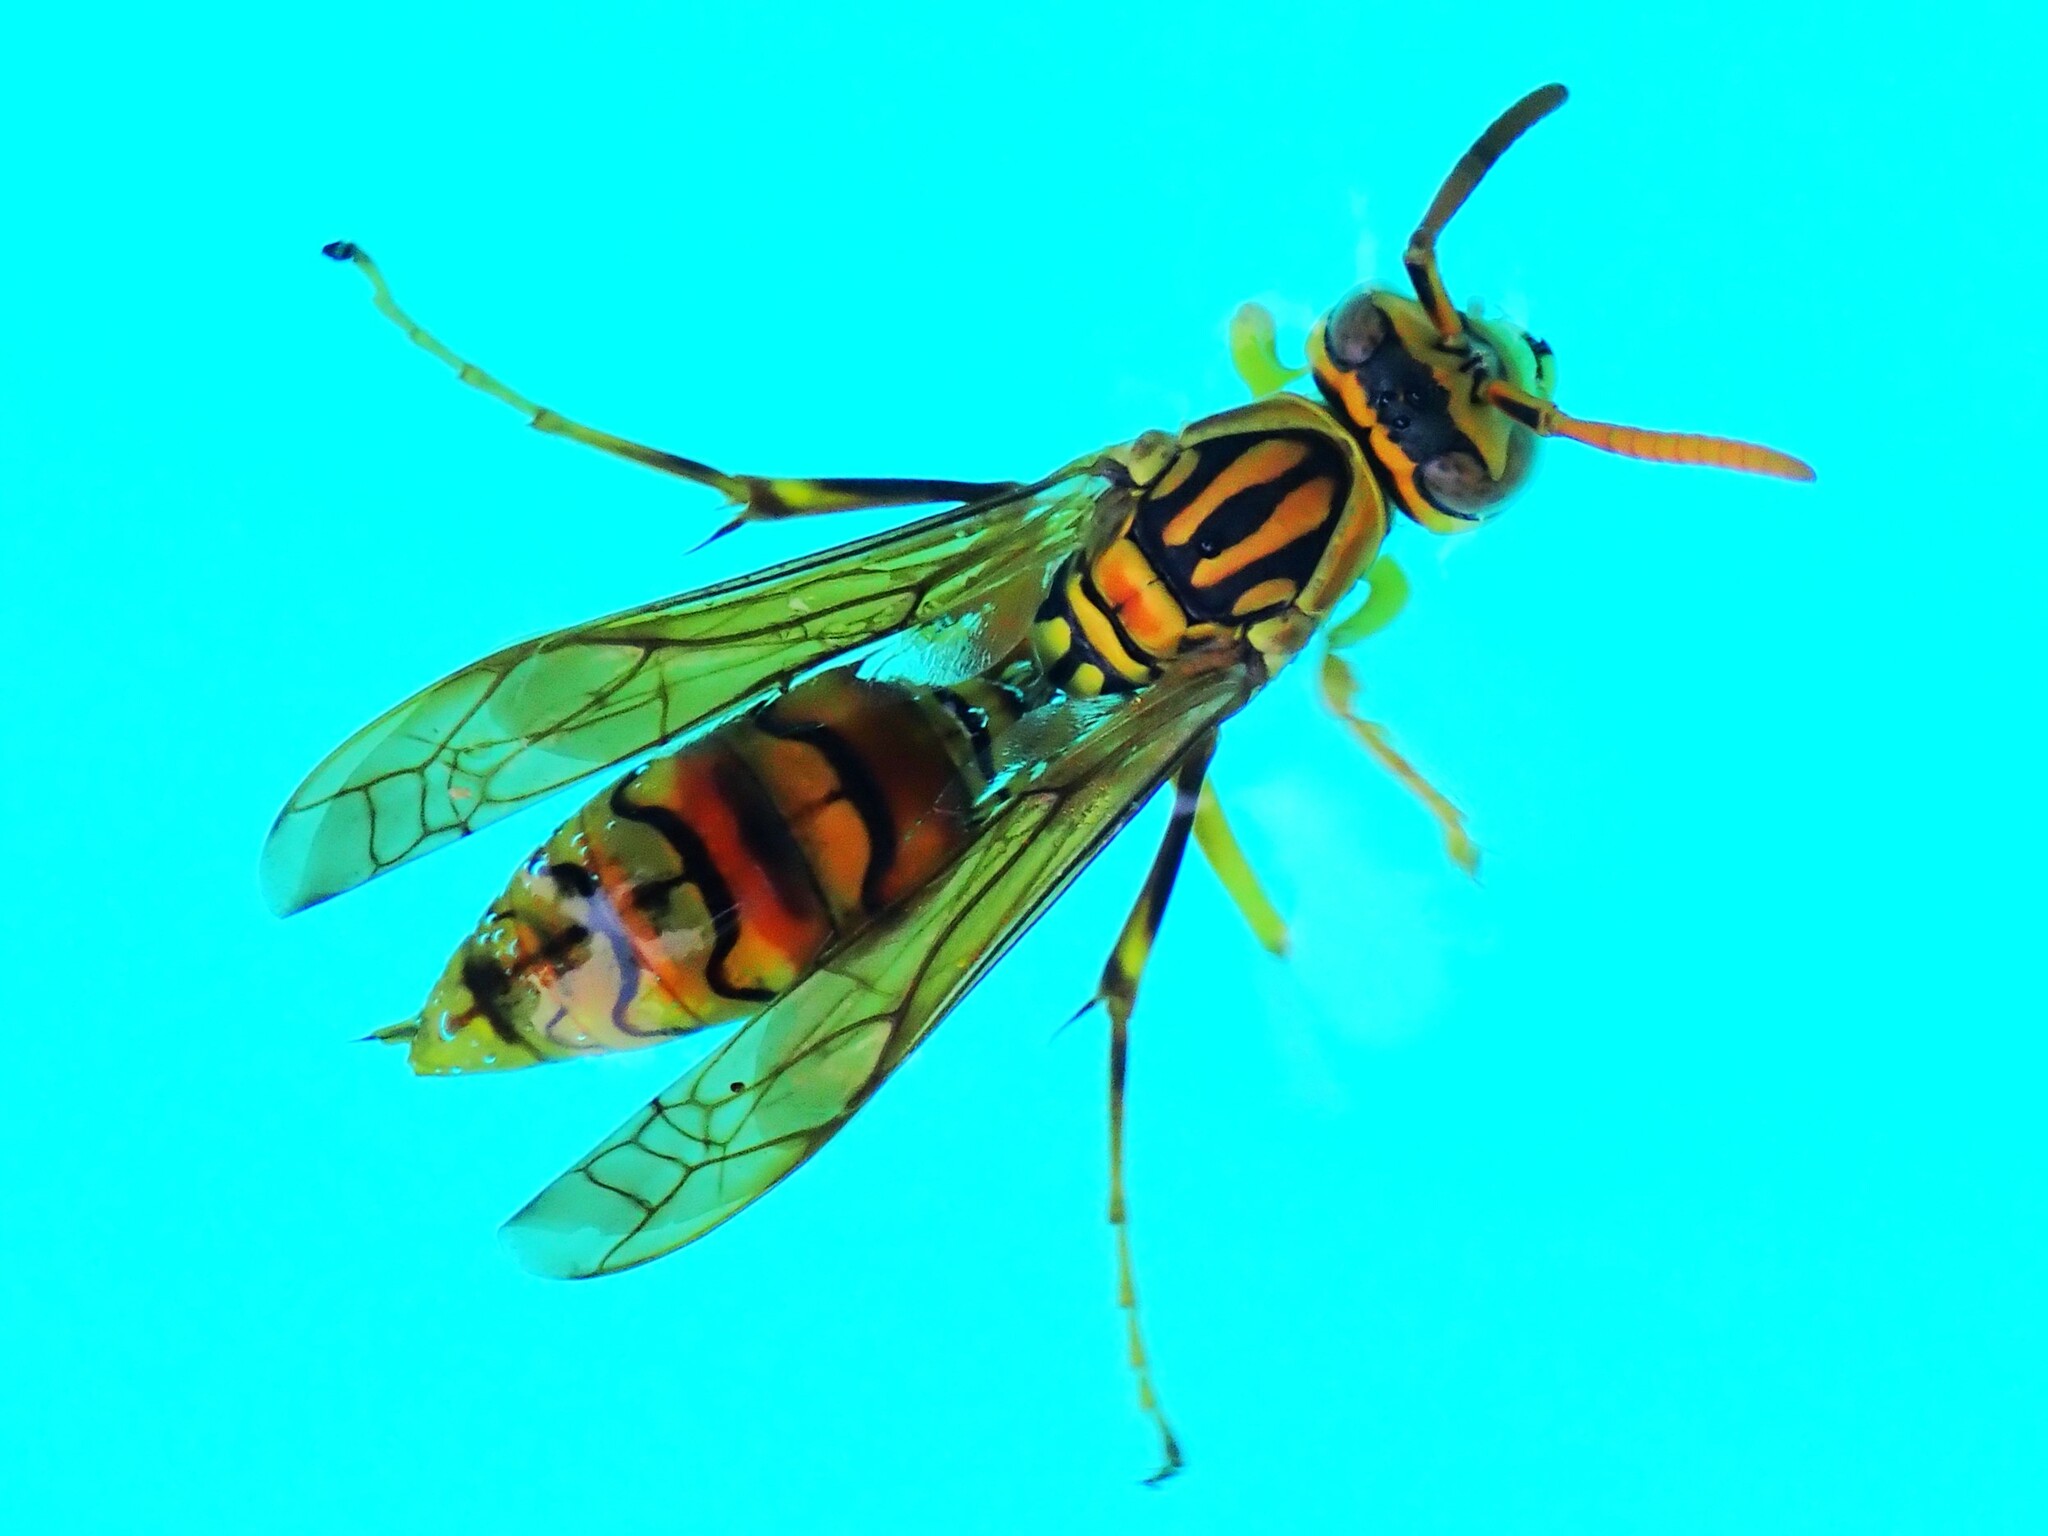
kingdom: Animalia
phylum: Arthropoda
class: Insecta
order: Hymenoptera
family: Eumenidae
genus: Polistes
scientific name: Polistes olivaceus
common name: Paper wasp
